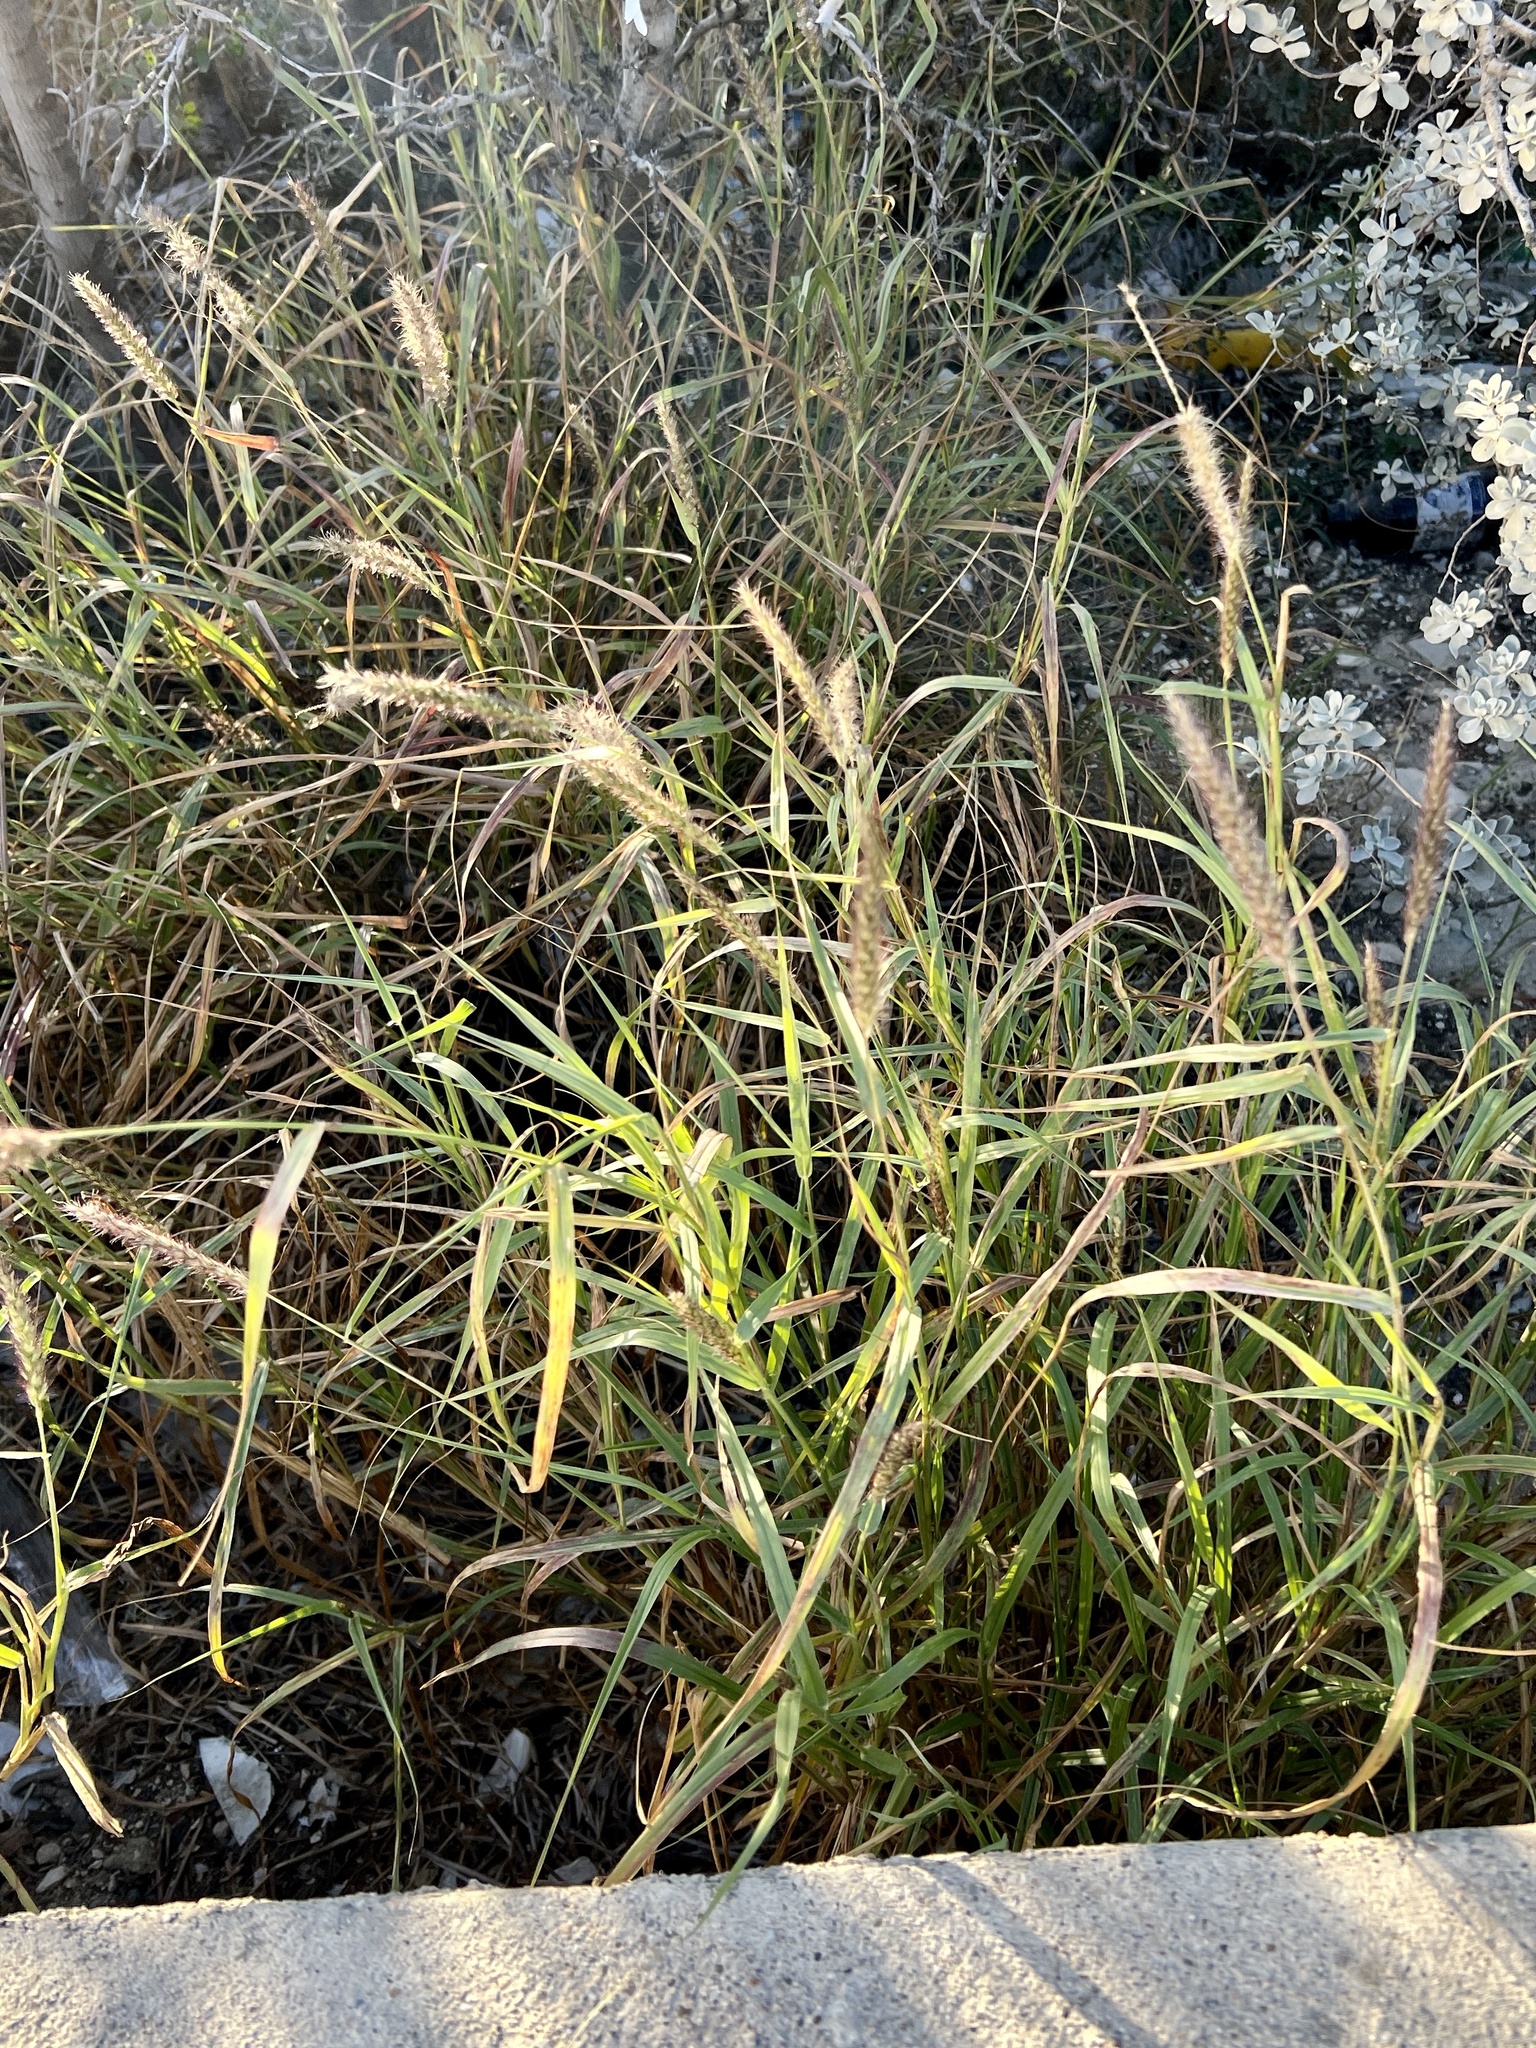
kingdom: Plantae
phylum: Tracheophyta
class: Liliopsida
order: Poales
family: Poaceae
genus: Cenchrus
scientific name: Cenchrus ciliaris
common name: Buffelgrass
